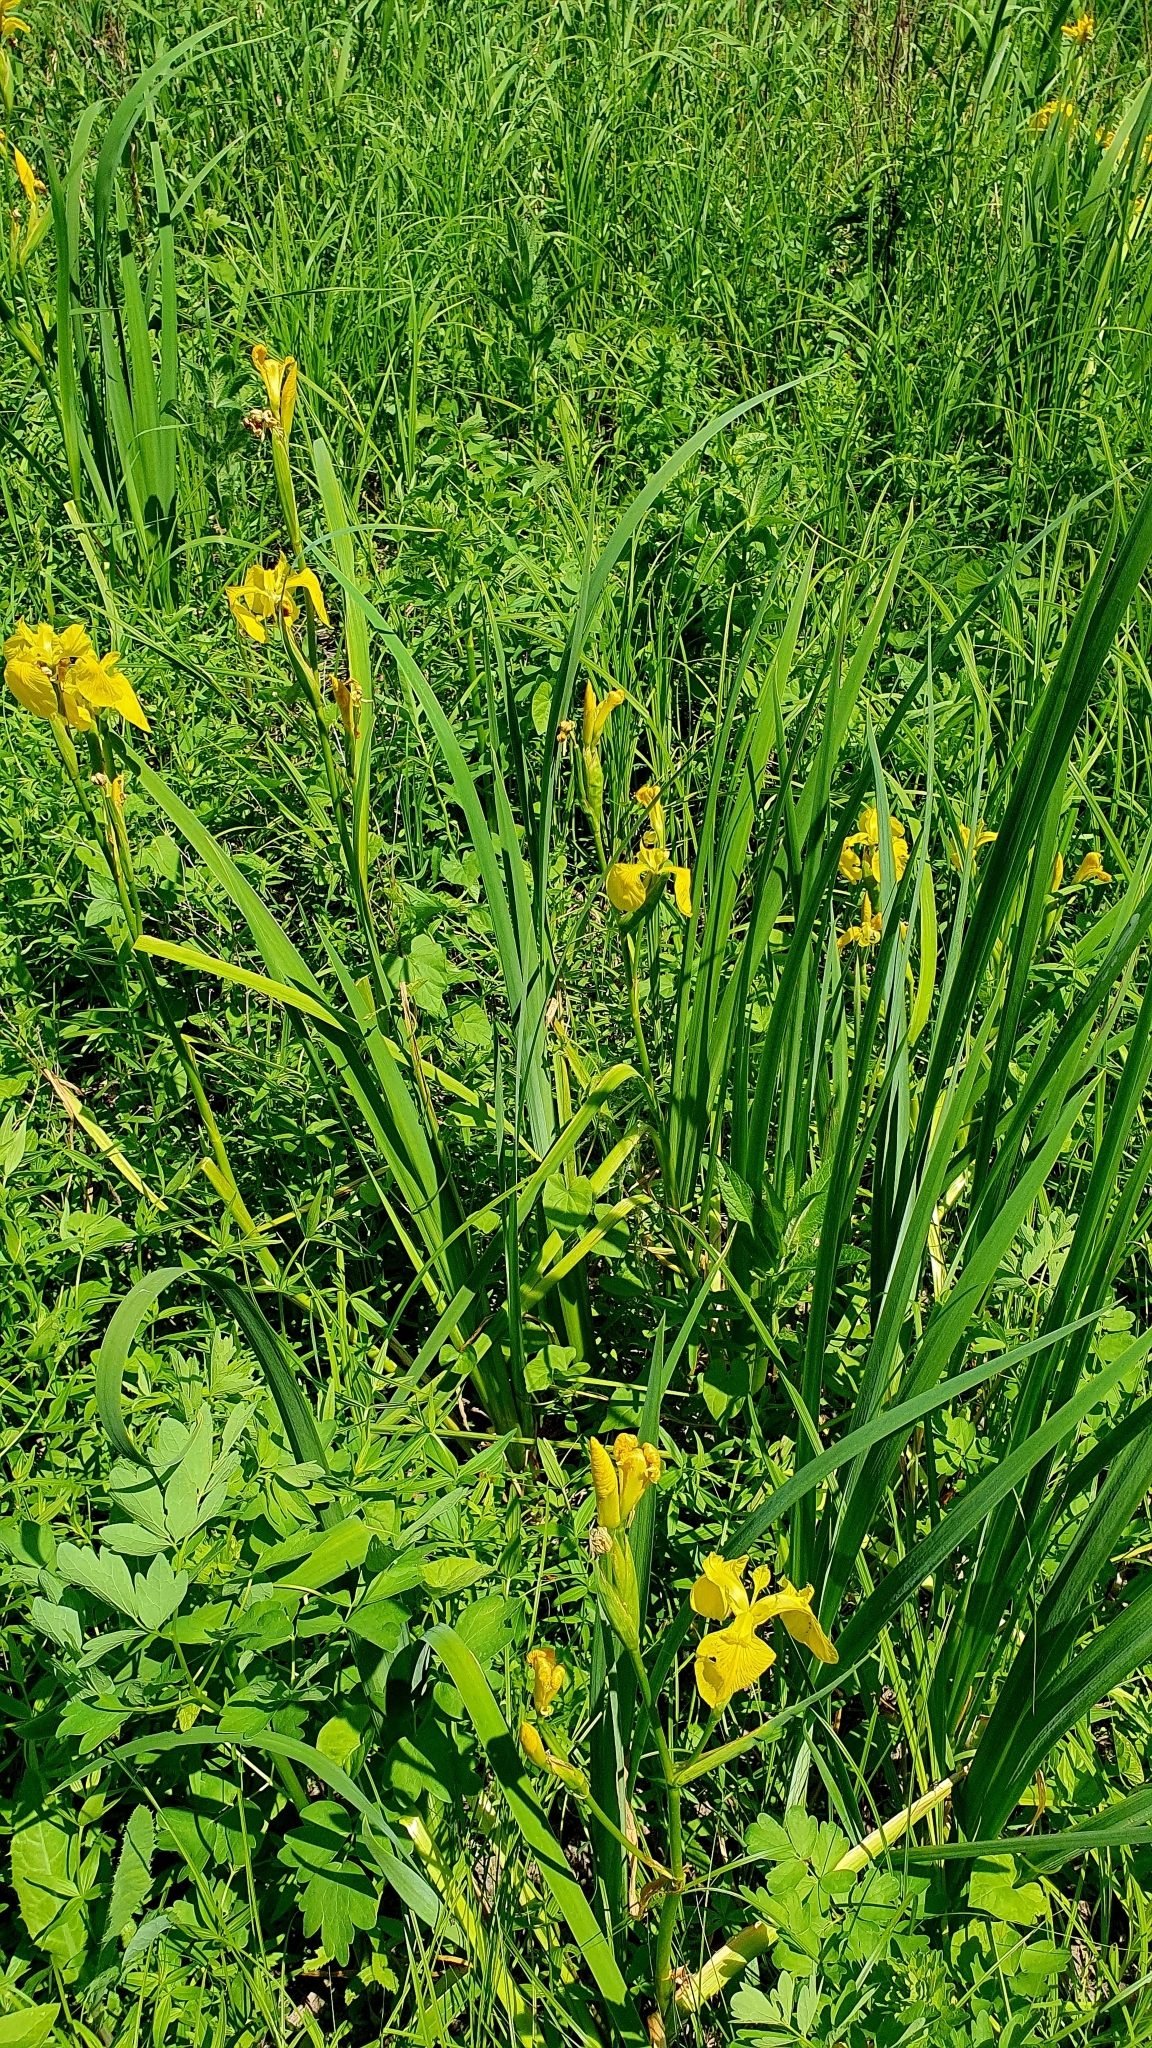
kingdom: Plantae
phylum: Tracheophyta
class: Liliopsida
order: Asparagales
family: Iridaceae
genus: Iris
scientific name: Iris pseudacorus
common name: Yellow flag
